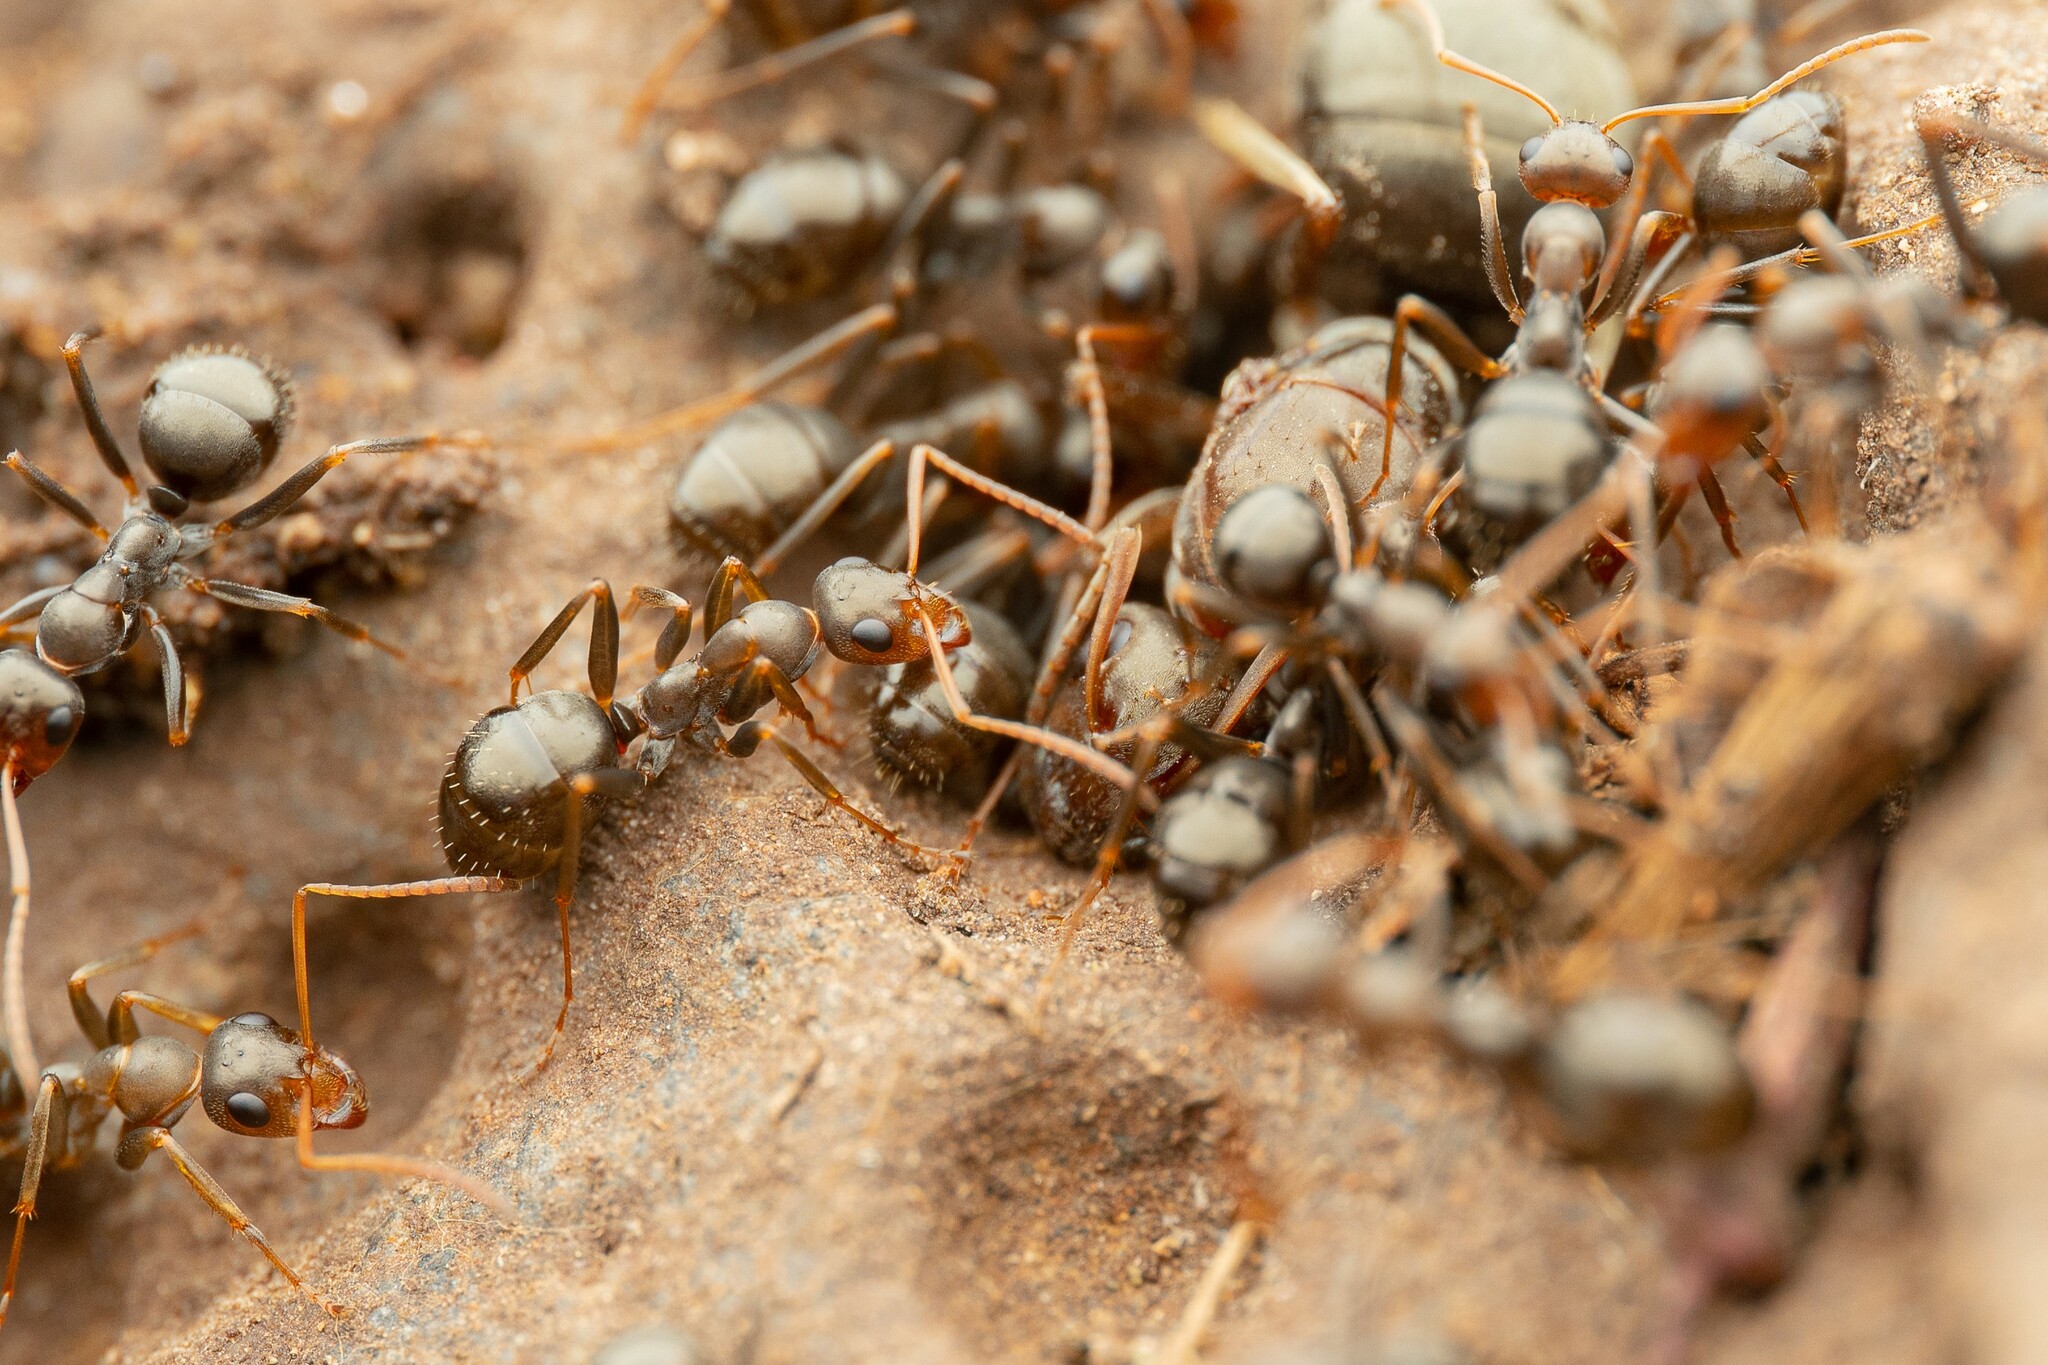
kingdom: Animalia
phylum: Arthropoda
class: Insecta
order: Hymenoptera
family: Formicidae
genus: Formica
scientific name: Formica gnava
